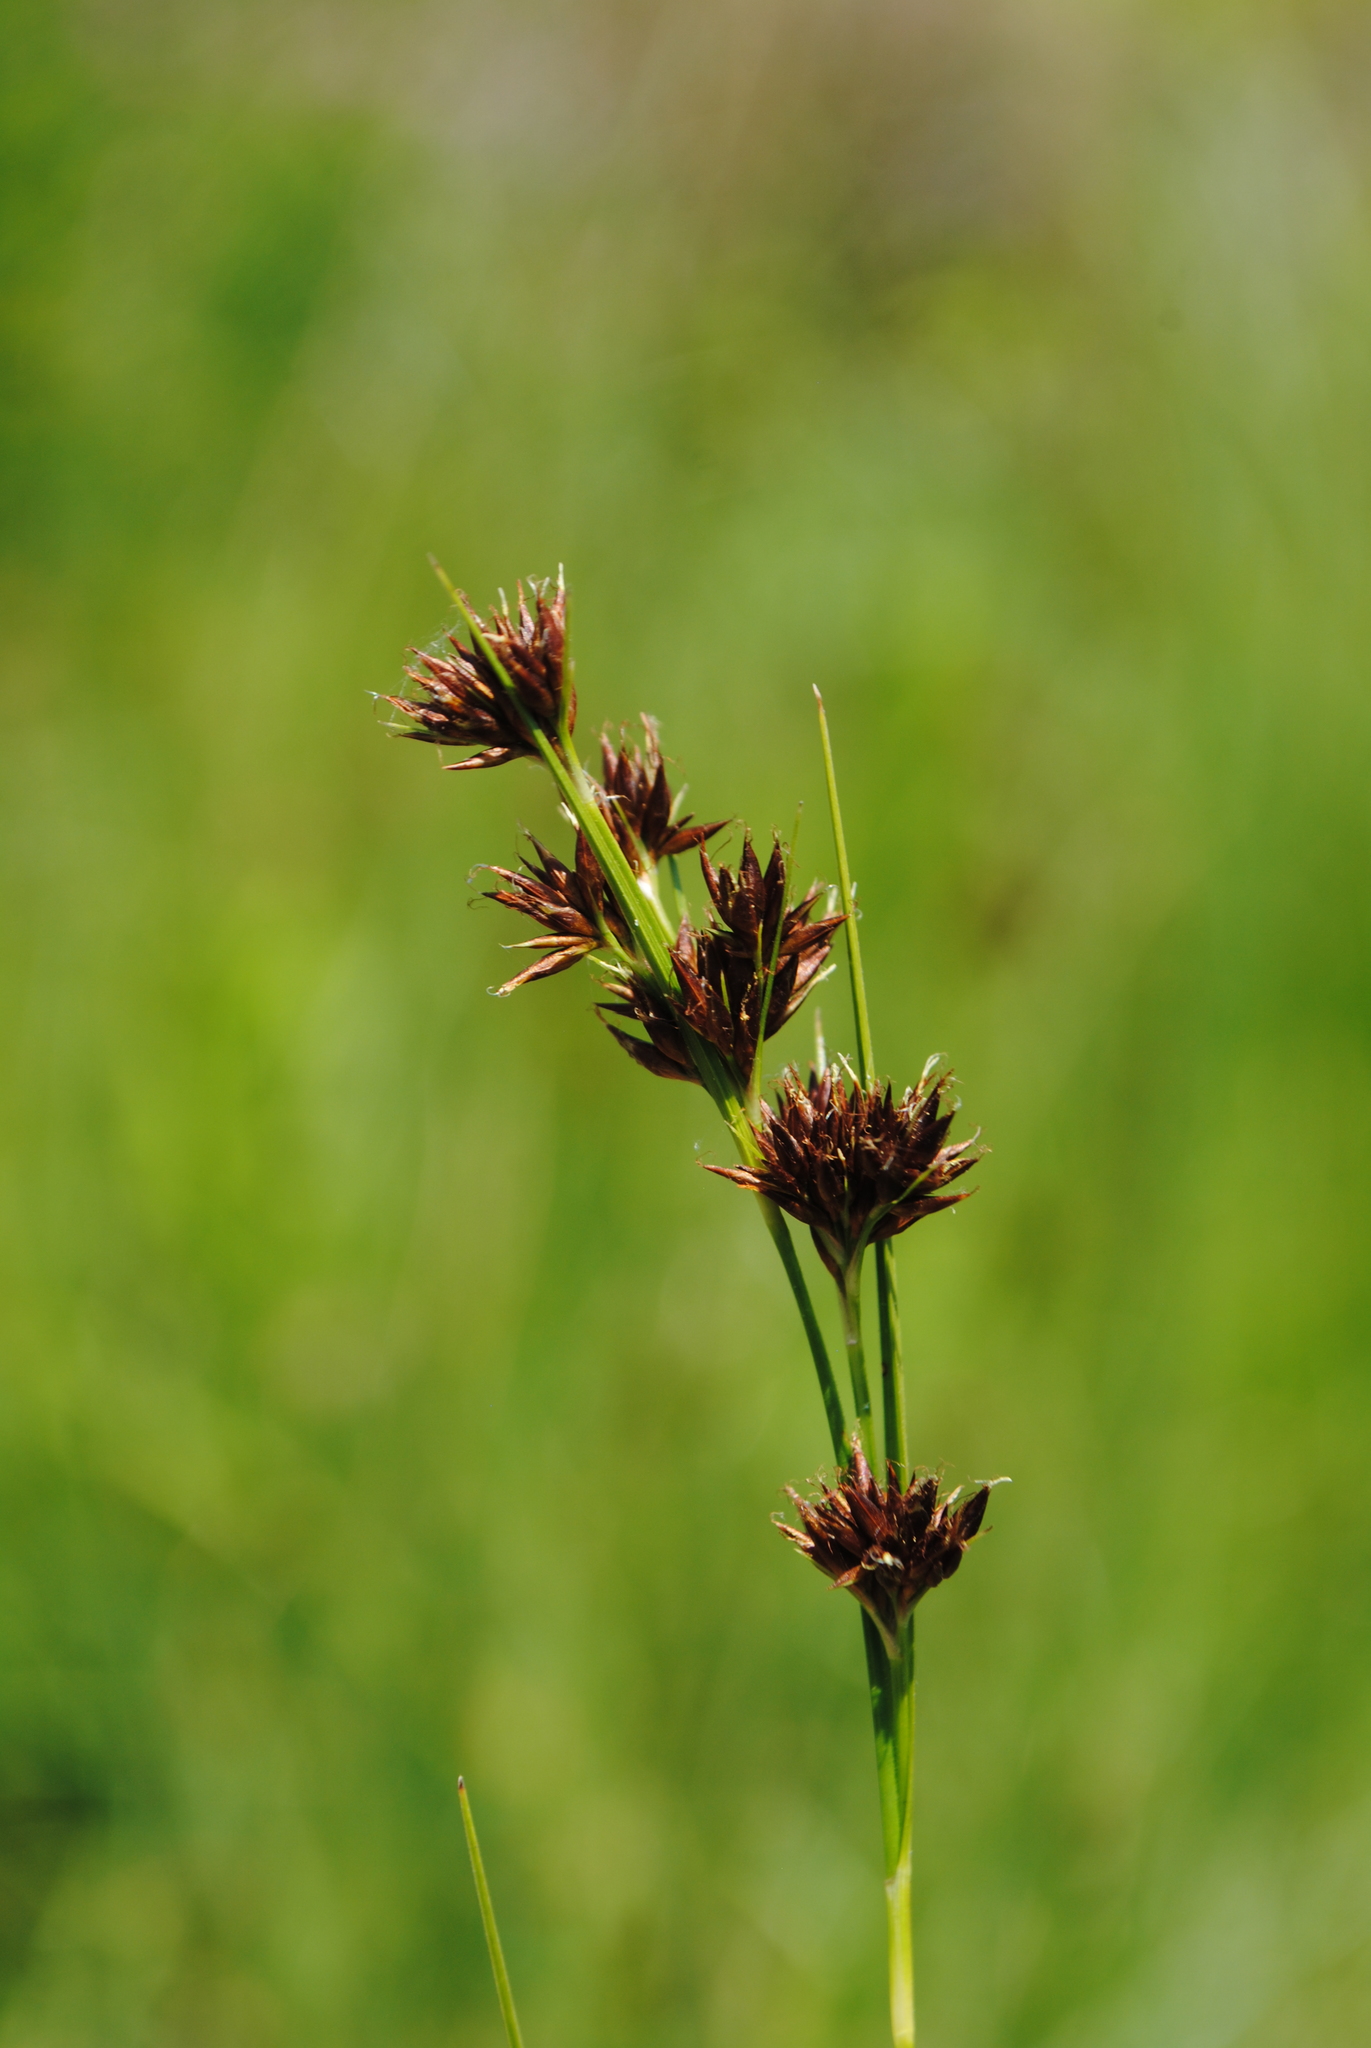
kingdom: Plantae
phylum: Tracheophyta
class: Liliopsida
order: Poales
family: Cyperaceae
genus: Rhynchospora
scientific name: Rhynchospora capitellata
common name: Brownish beaksedge
